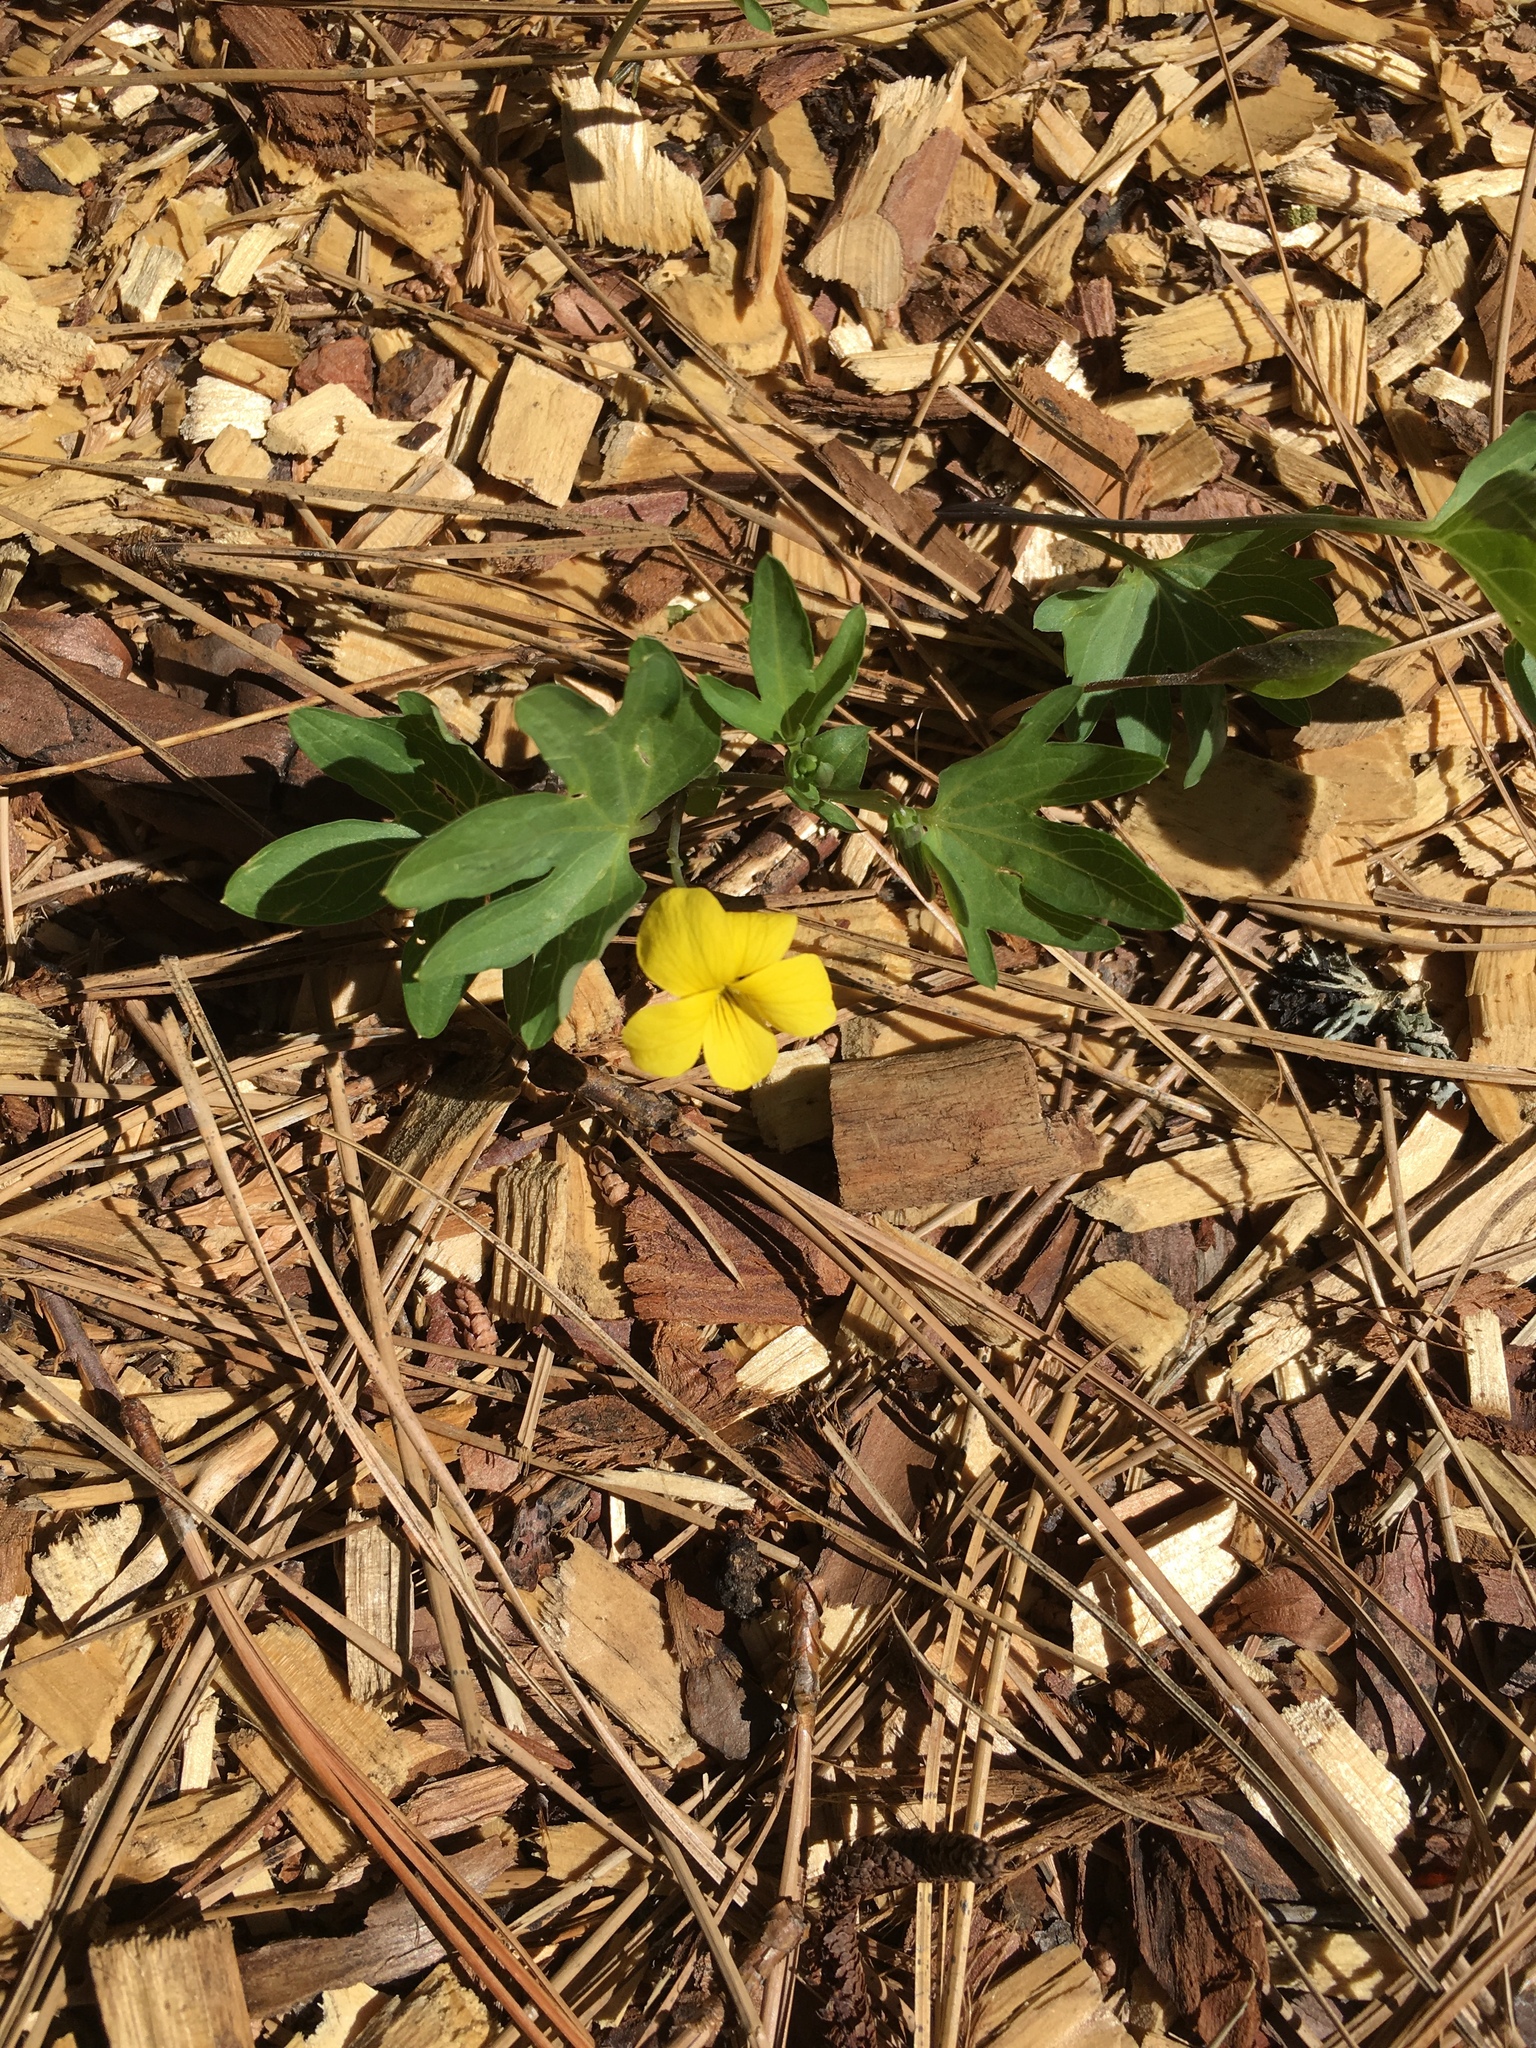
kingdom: Plantae
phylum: Tracheophyta
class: Magnoliopsida
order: Malpighiales
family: Violaceae
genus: Viola
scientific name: Viola lobata
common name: Pine violet
